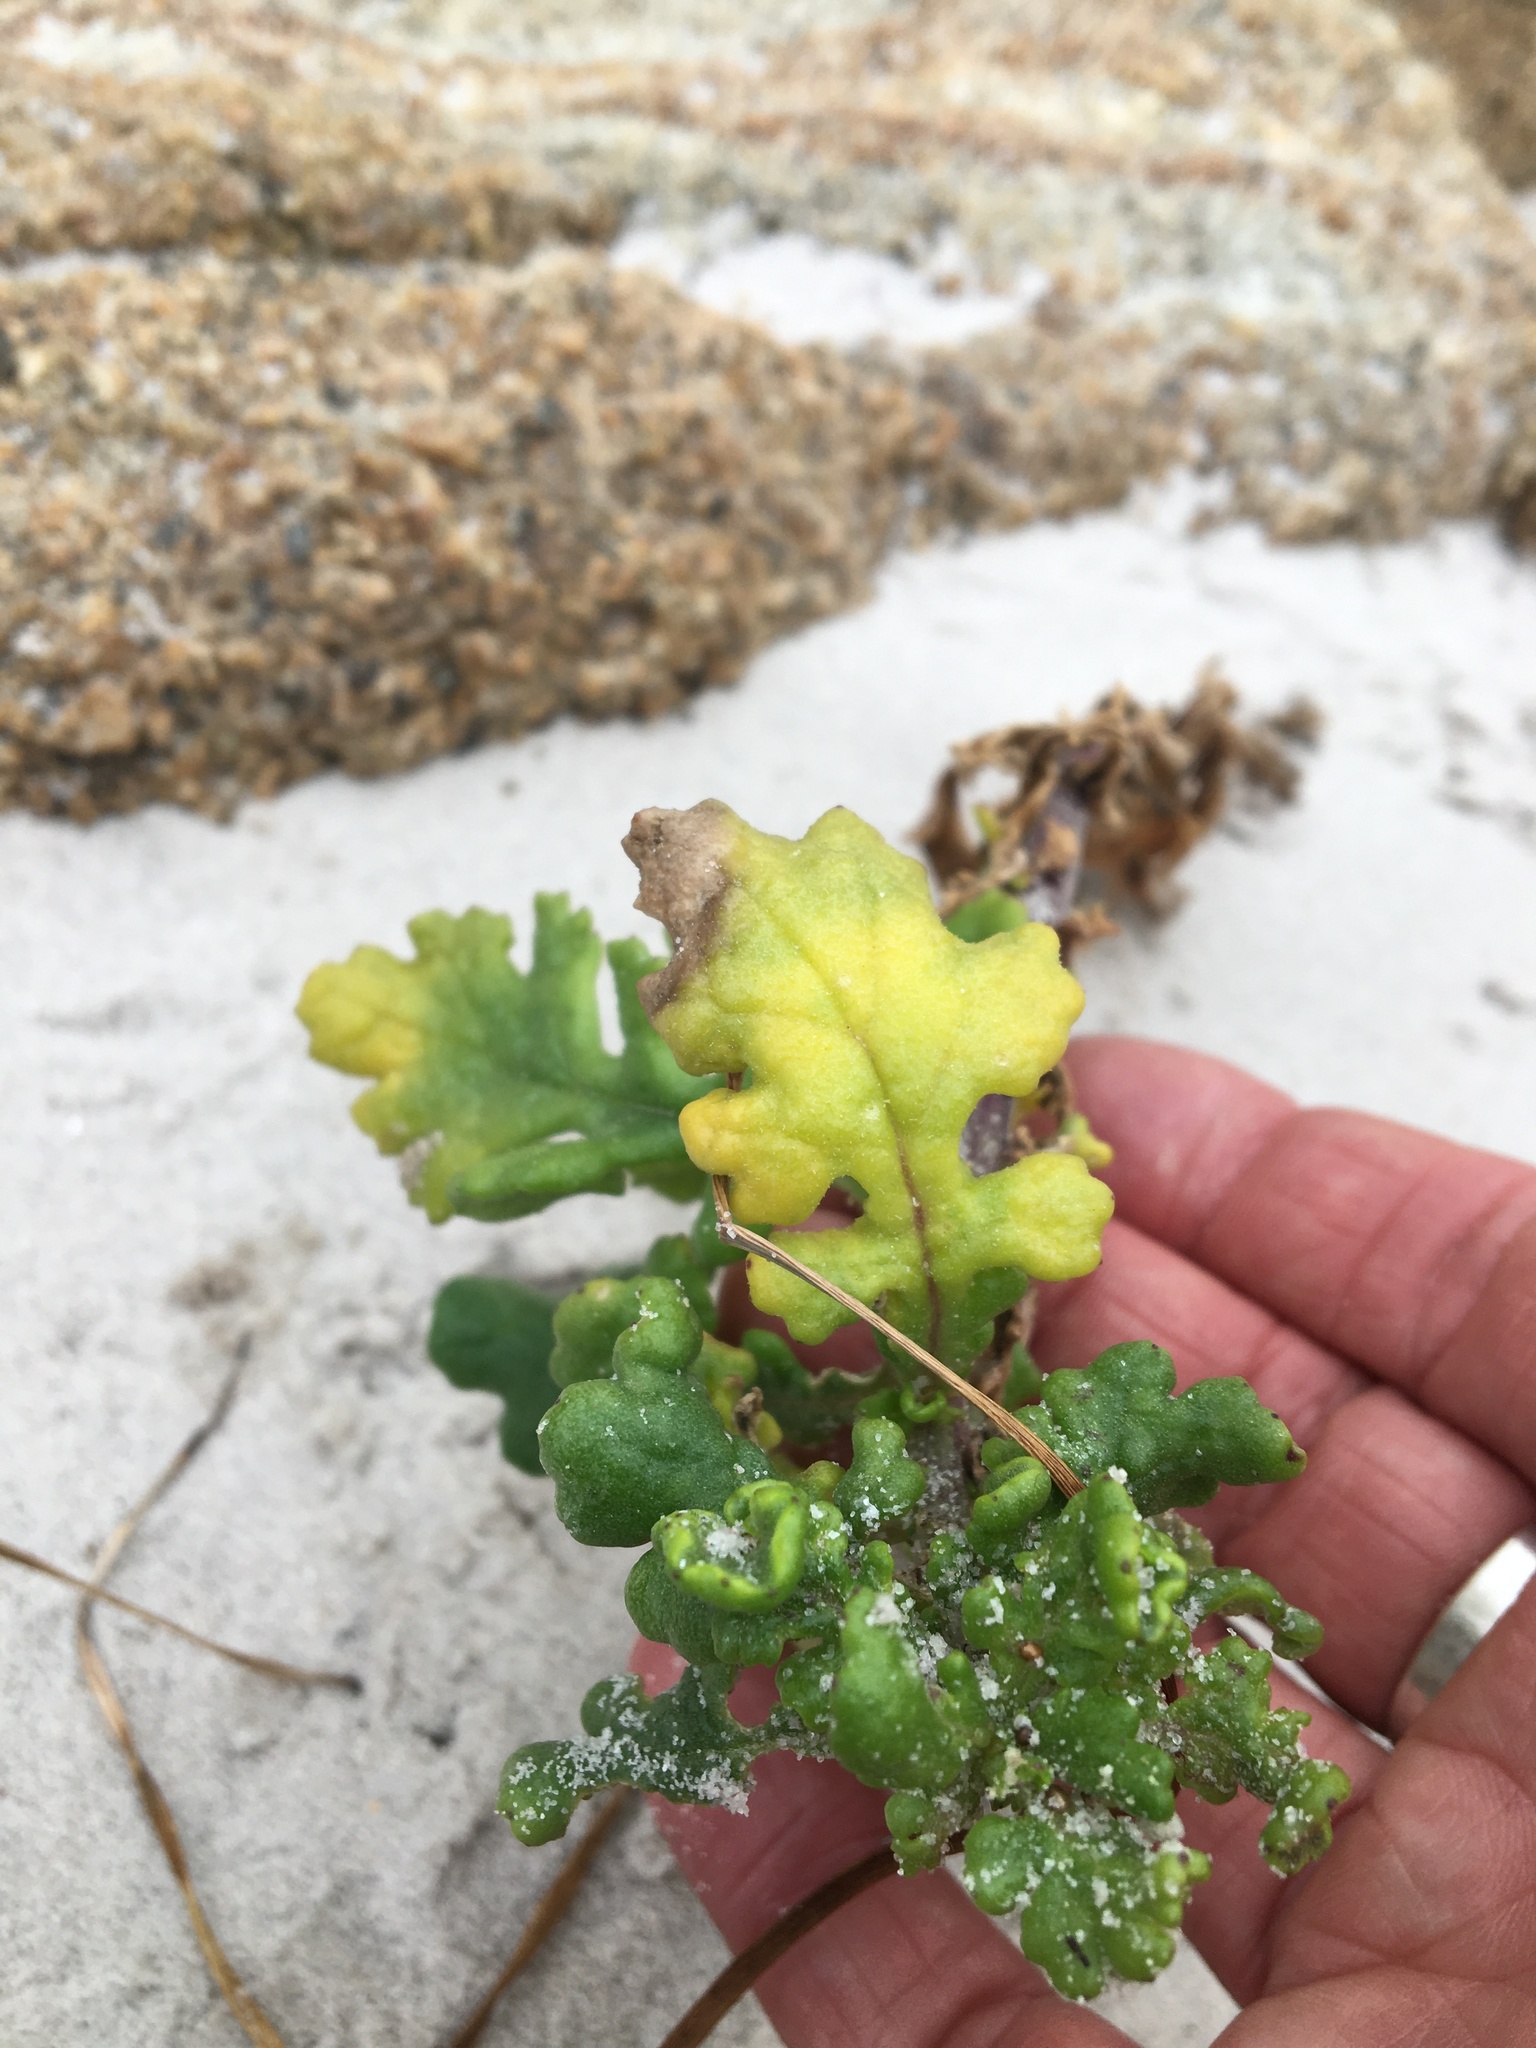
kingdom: Plantae
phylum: Tracheophyta
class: Magnoliopsida
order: Asterales
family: Asteraceae
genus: Senecio
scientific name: Senecio elegans
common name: Purple groundsel
